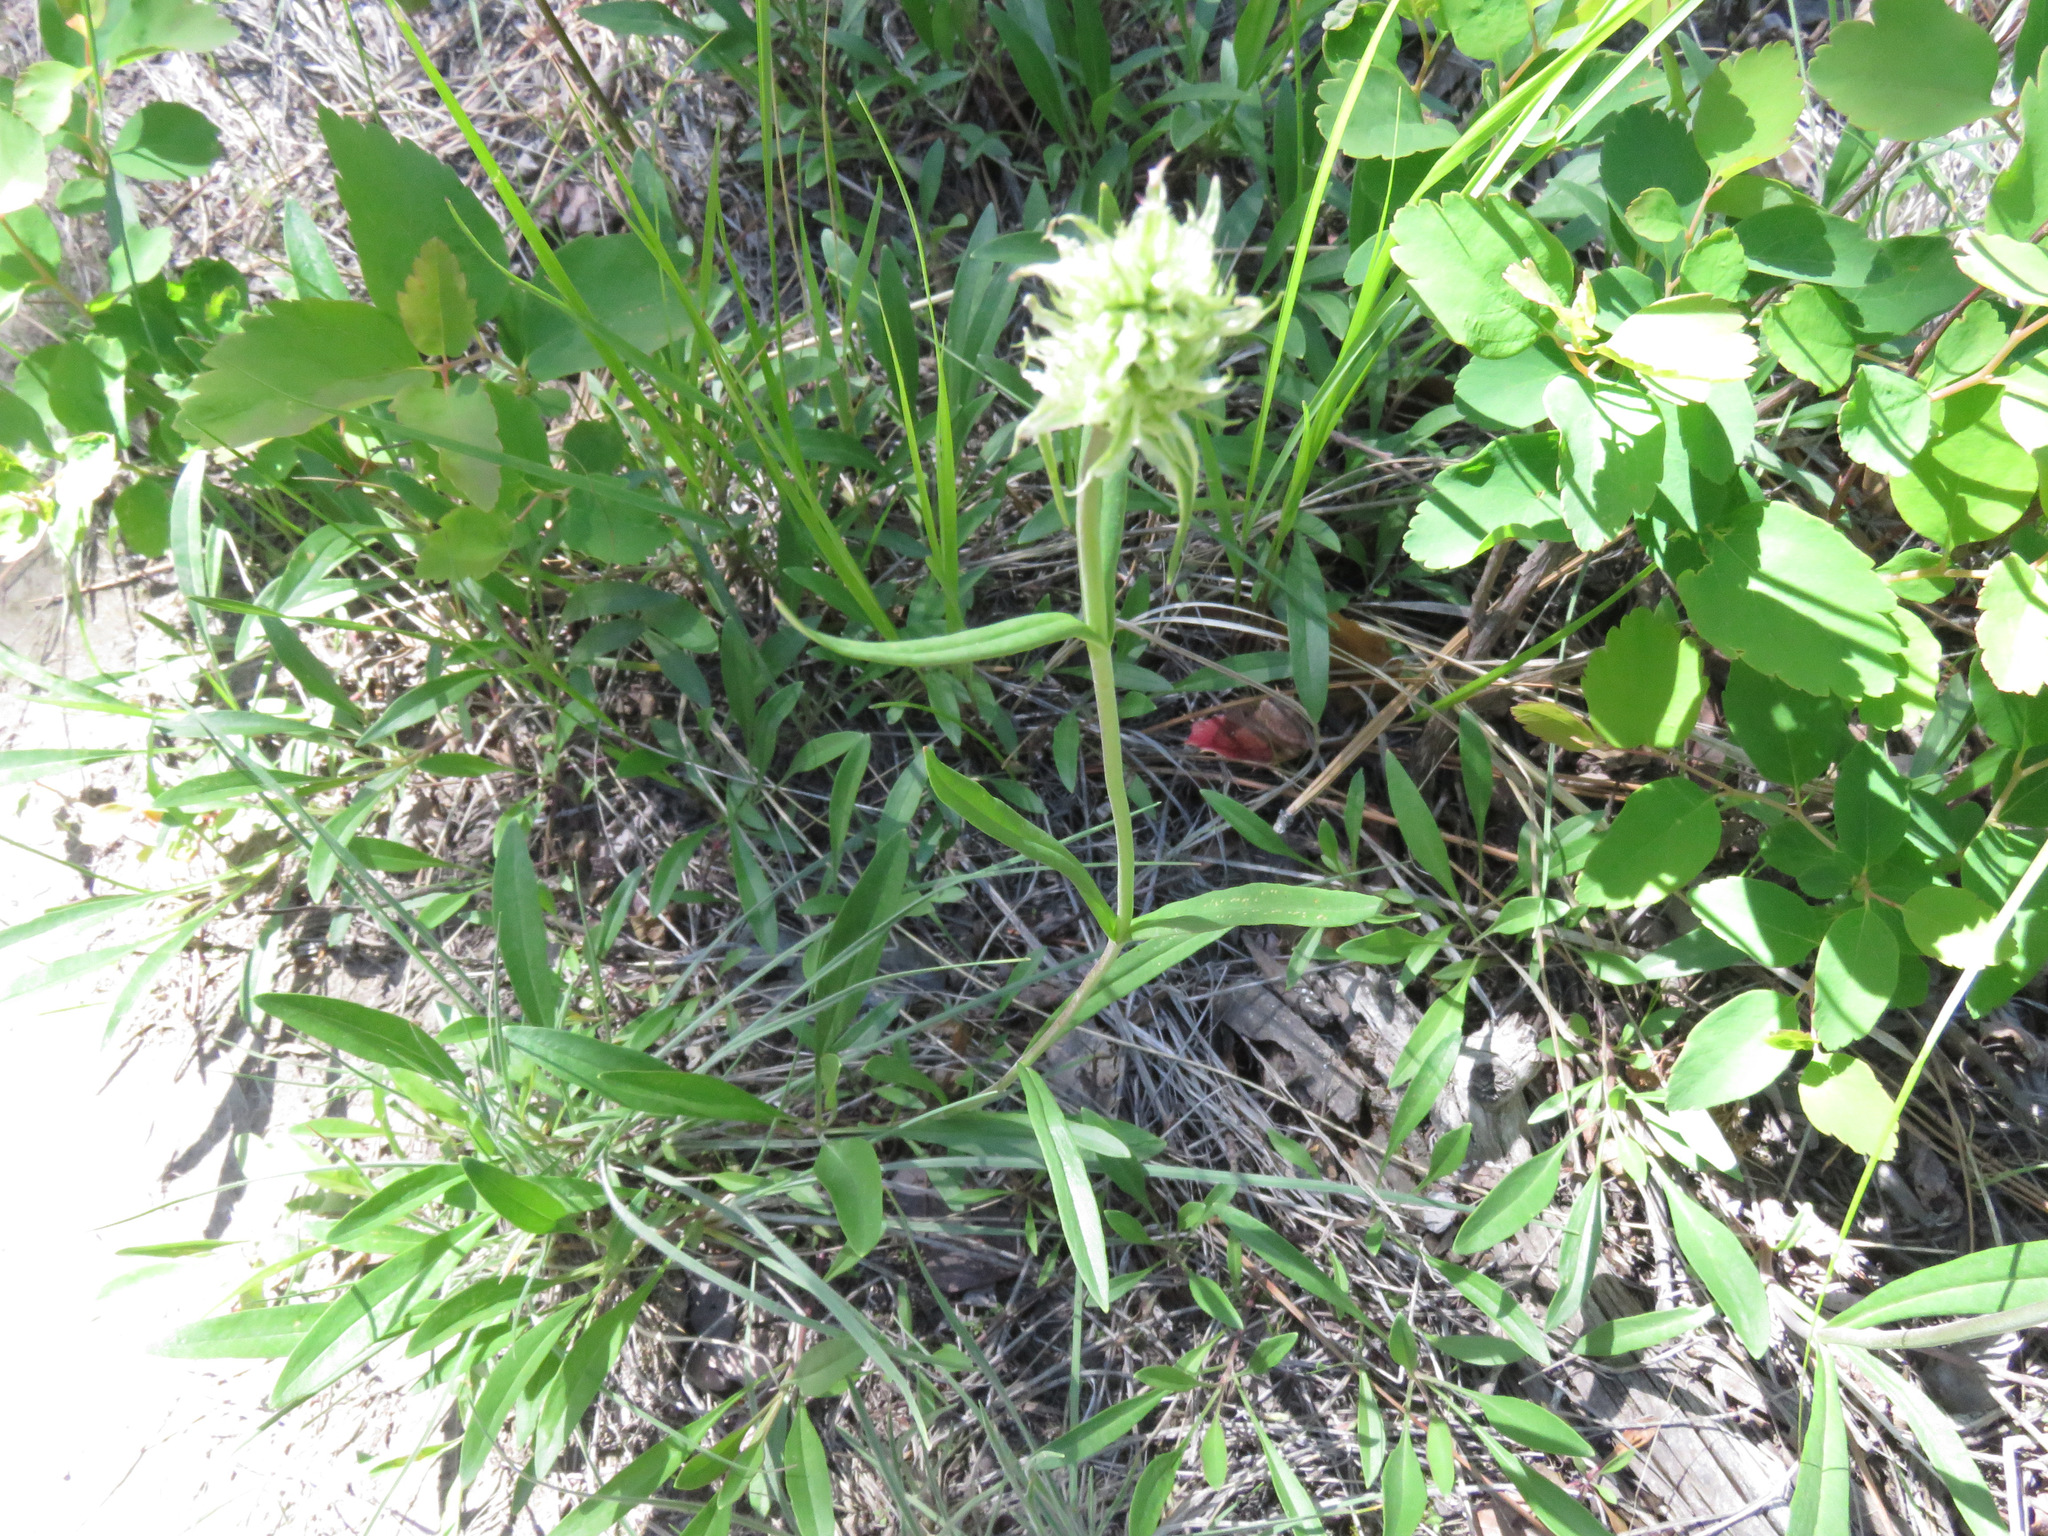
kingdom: Plantae
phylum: Tracheophyta
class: Magnoliopsida
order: Lamiales
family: Plantaginaceae
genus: Penstemon
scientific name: Penstemon confertus
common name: Lesser yellow beardtongue
